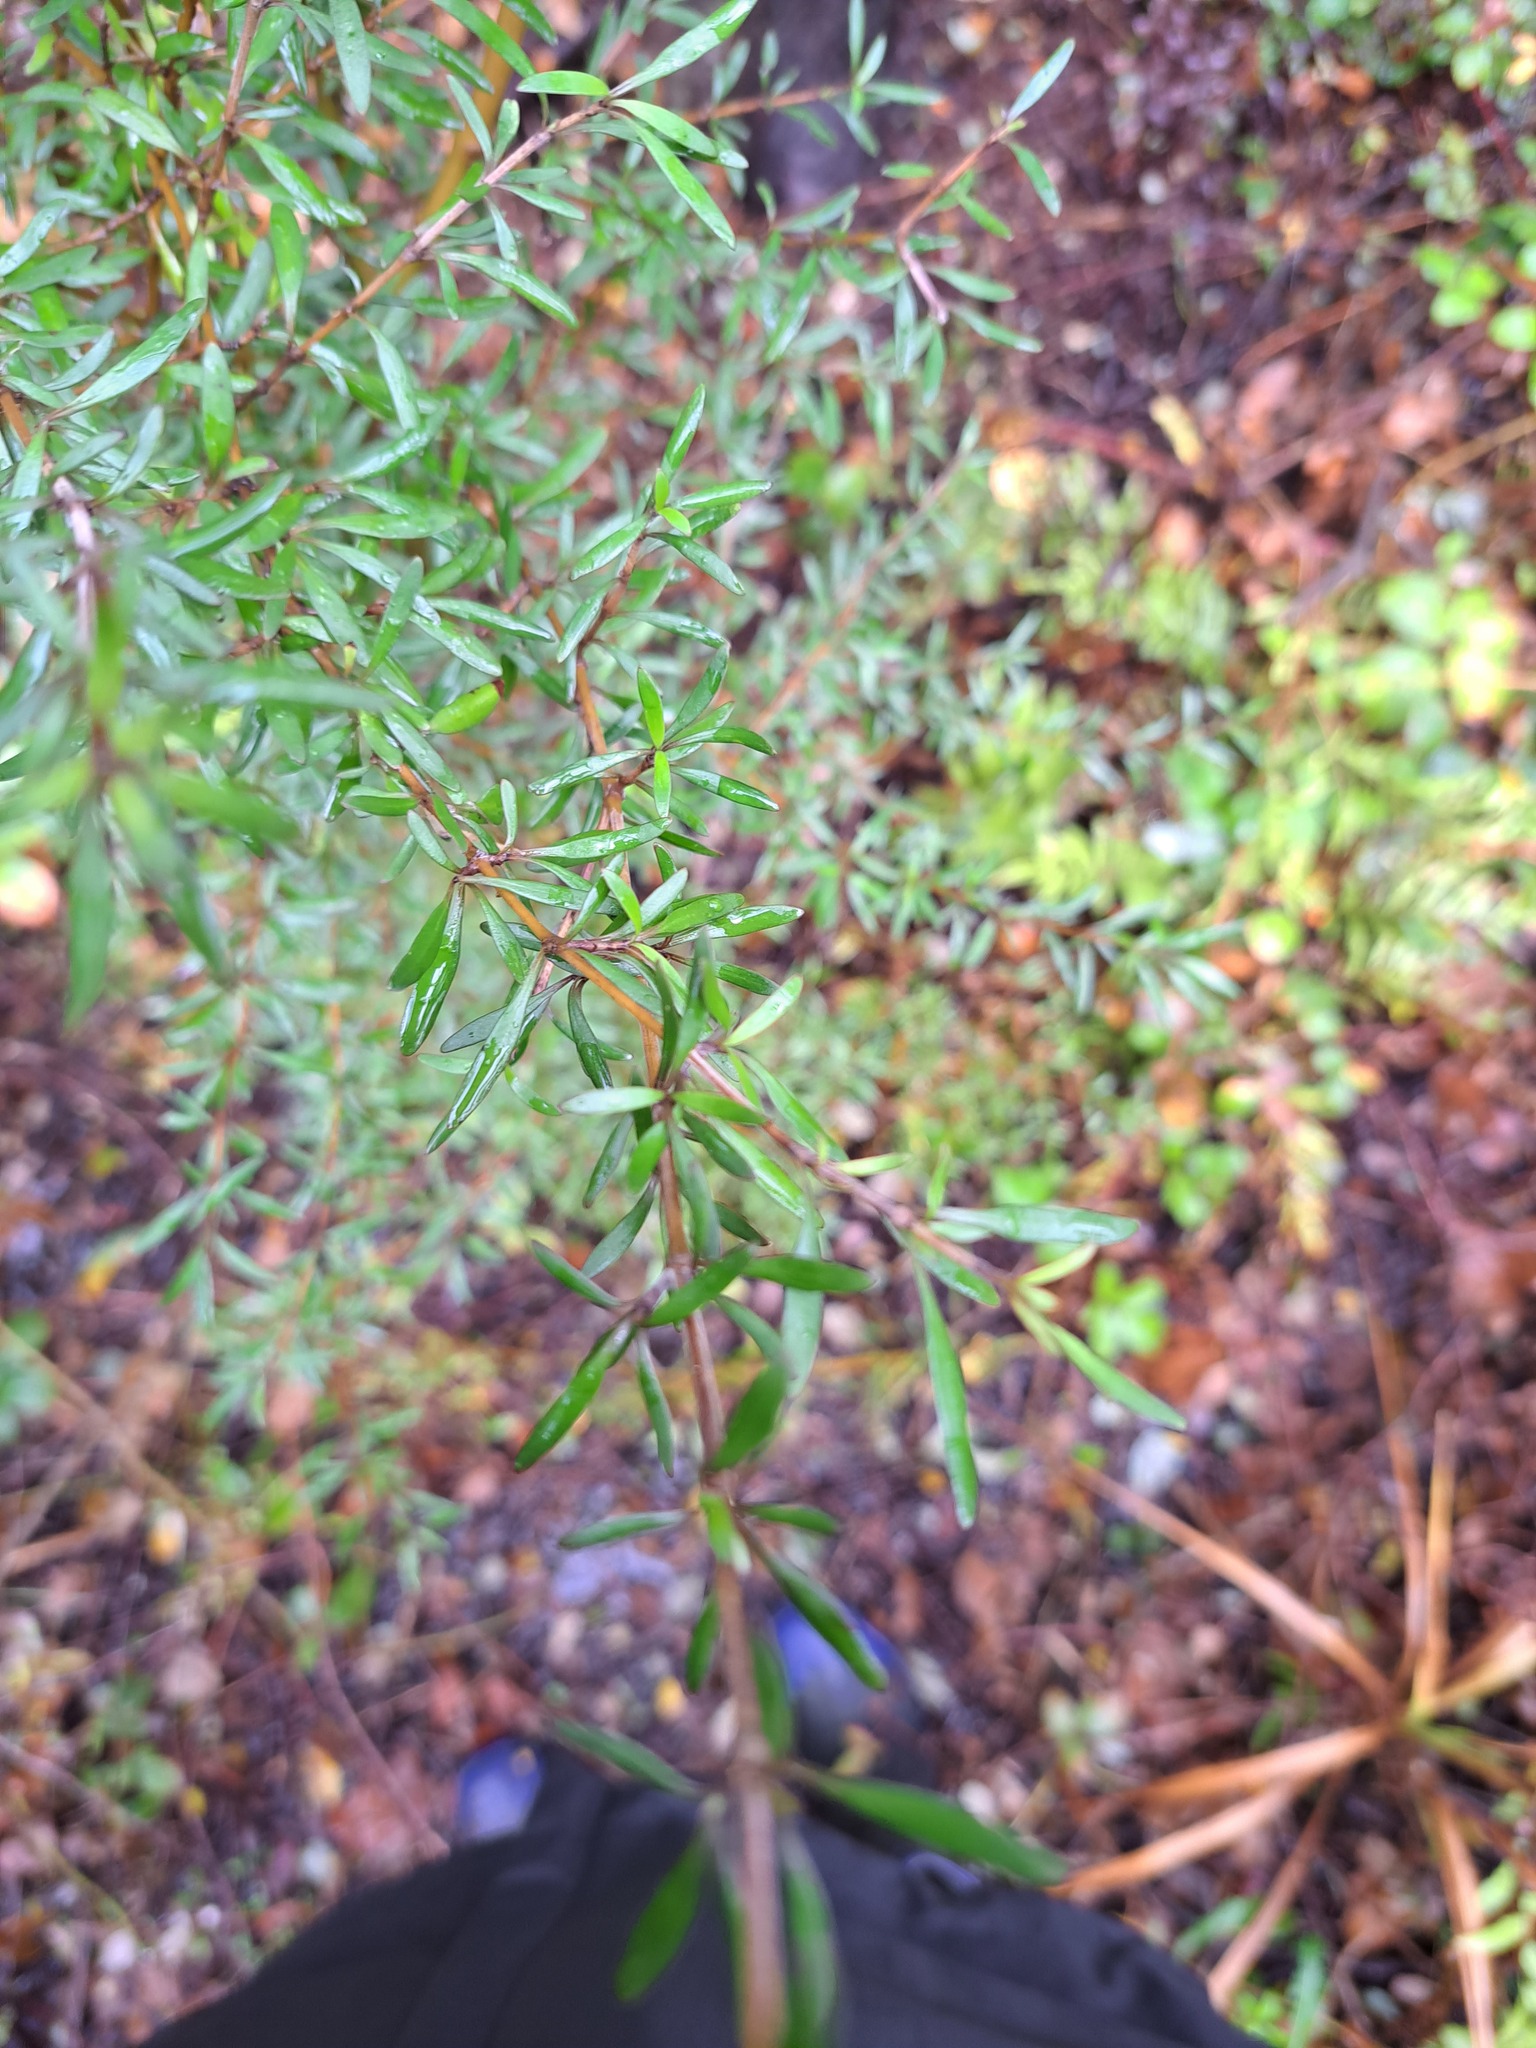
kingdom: Plantae
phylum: Tracheophyta
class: Magnoliopsida
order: Gentianales
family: Rubiaceae
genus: Coprosma
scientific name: Coprosma propinqua
